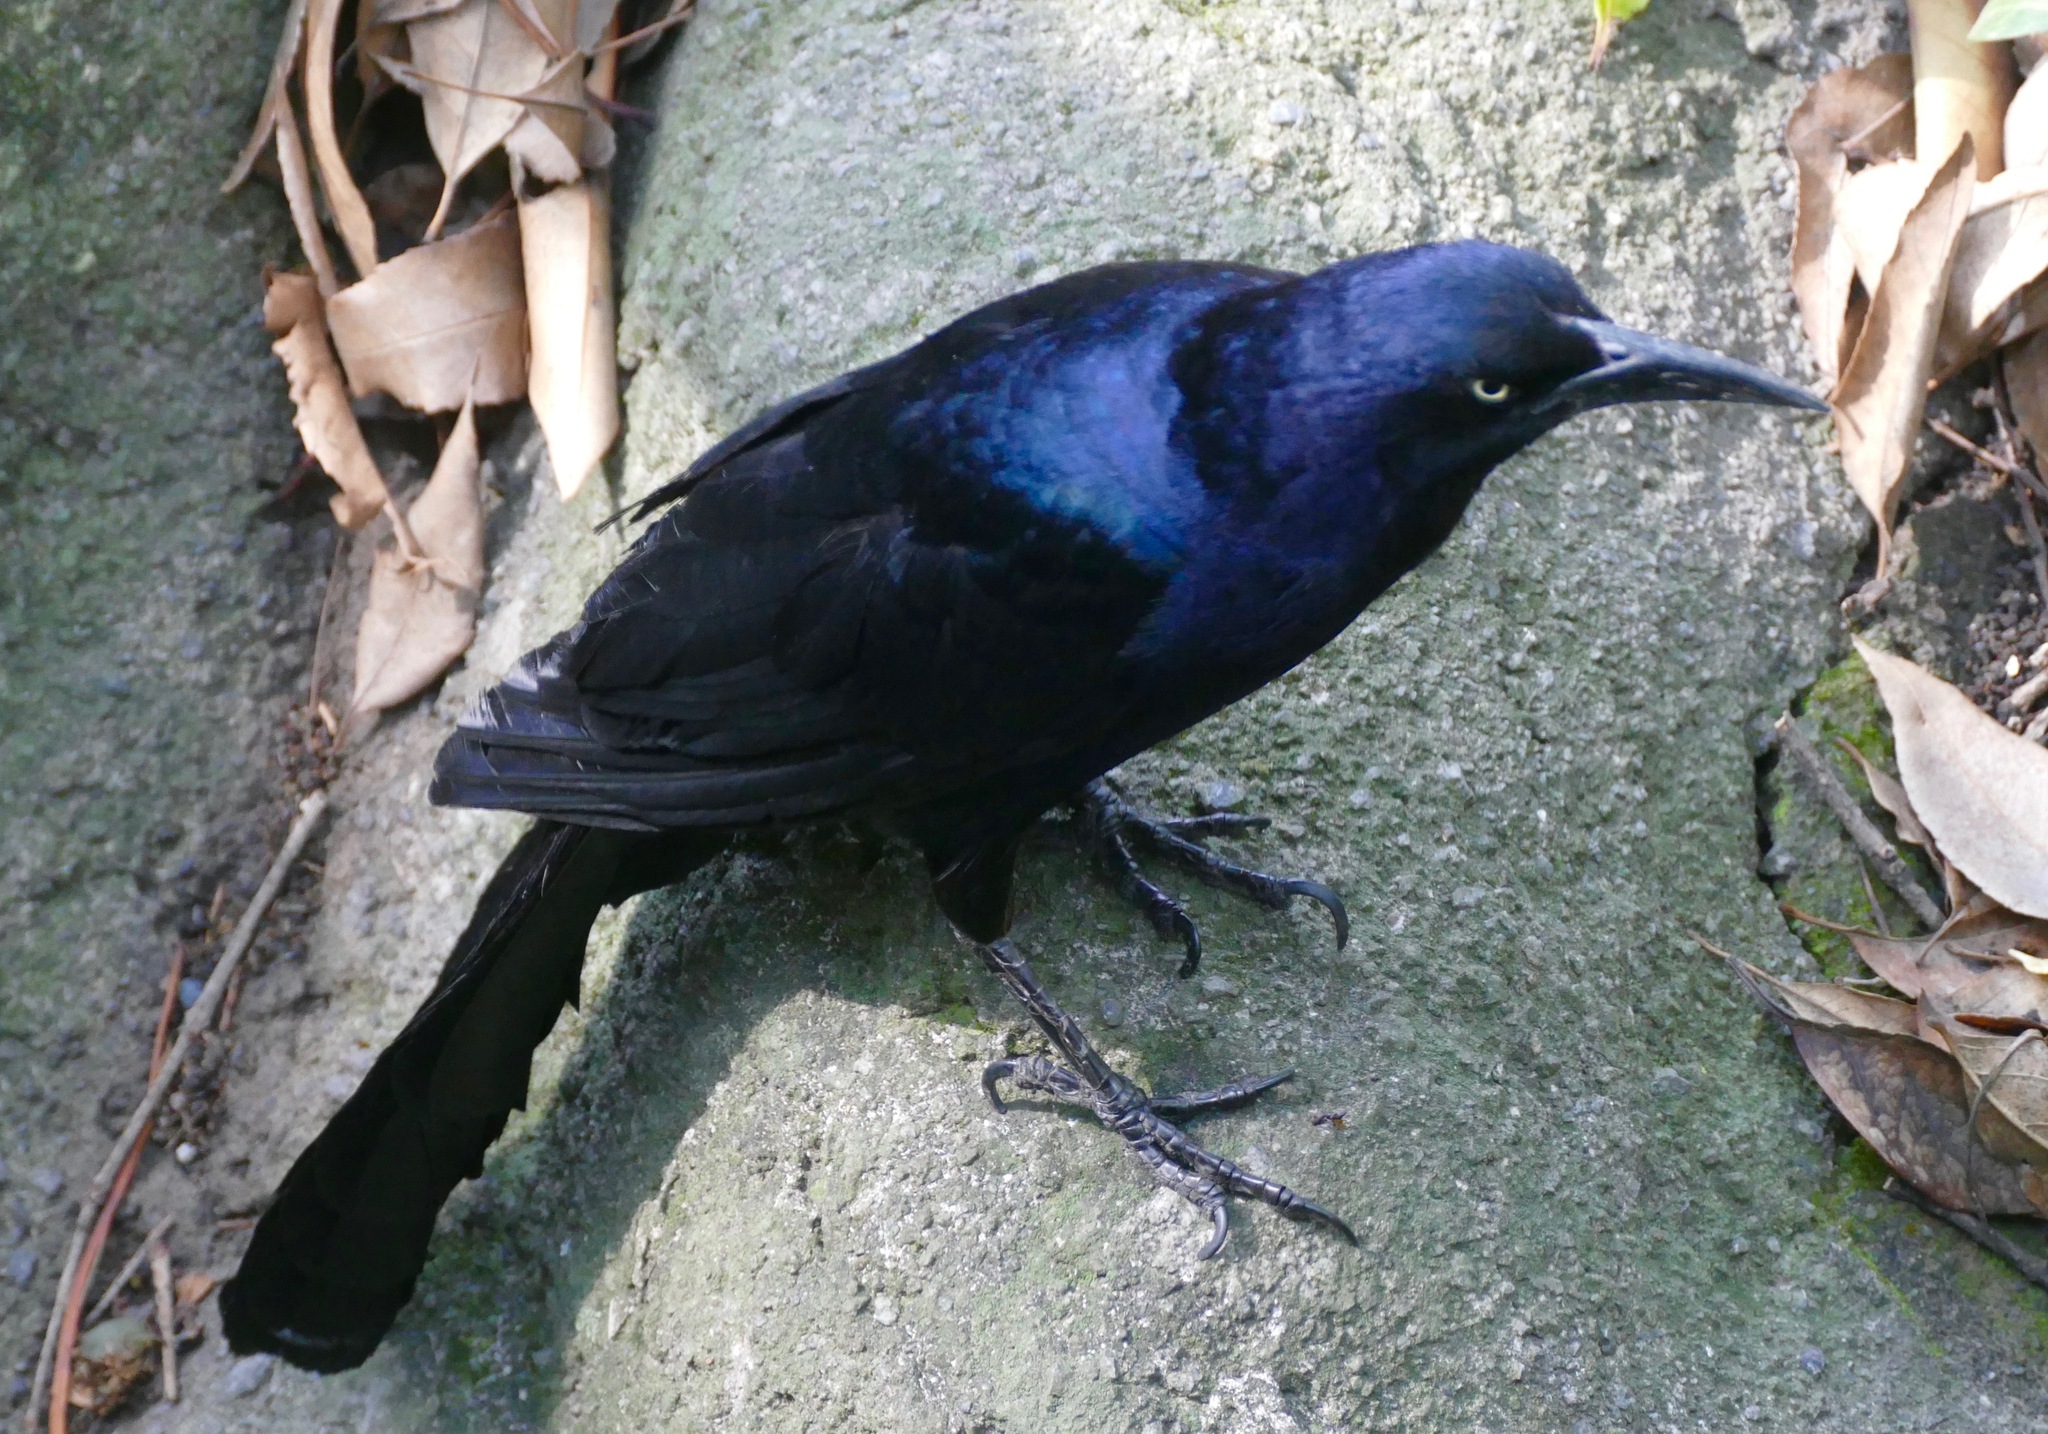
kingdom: Animalia
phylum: Chordata
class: Aves
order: Passeriformes
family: Icteridae
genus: Quiscalus
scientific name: Quiscalus mexicanus
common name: Great-tailed grackle
